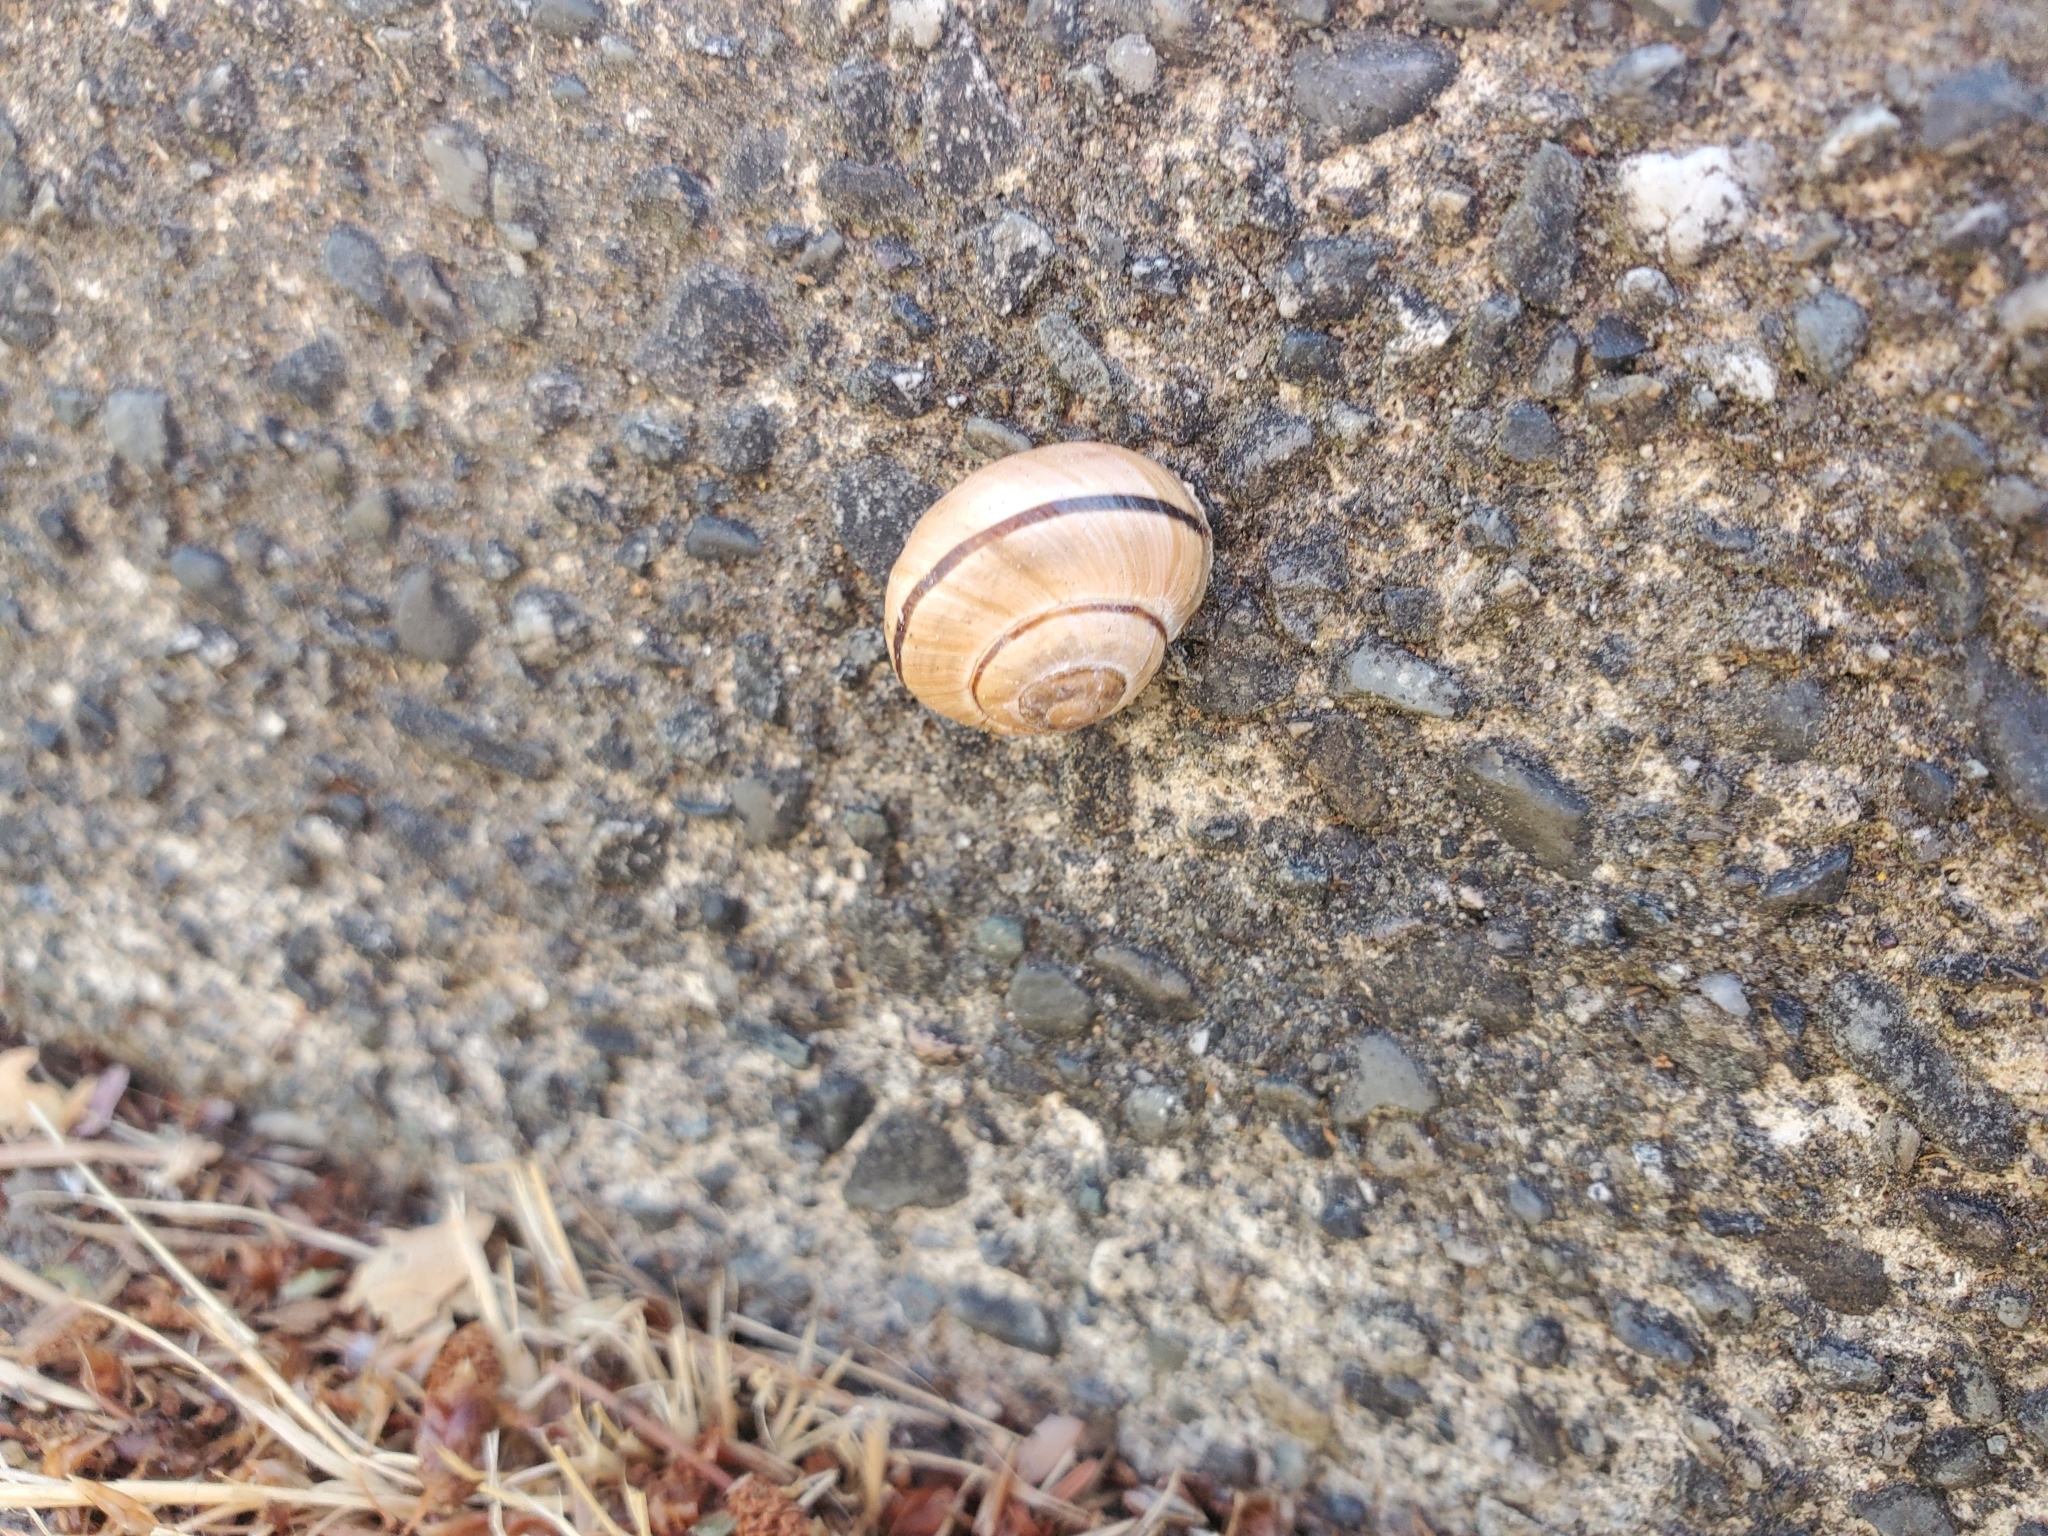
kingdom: Animalia
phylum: Mollusca
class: Gastropoda
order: Stylommatophora
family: Helicidae
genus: Cepaea
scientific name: Cepaea nemoralis
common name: Grovesnail
